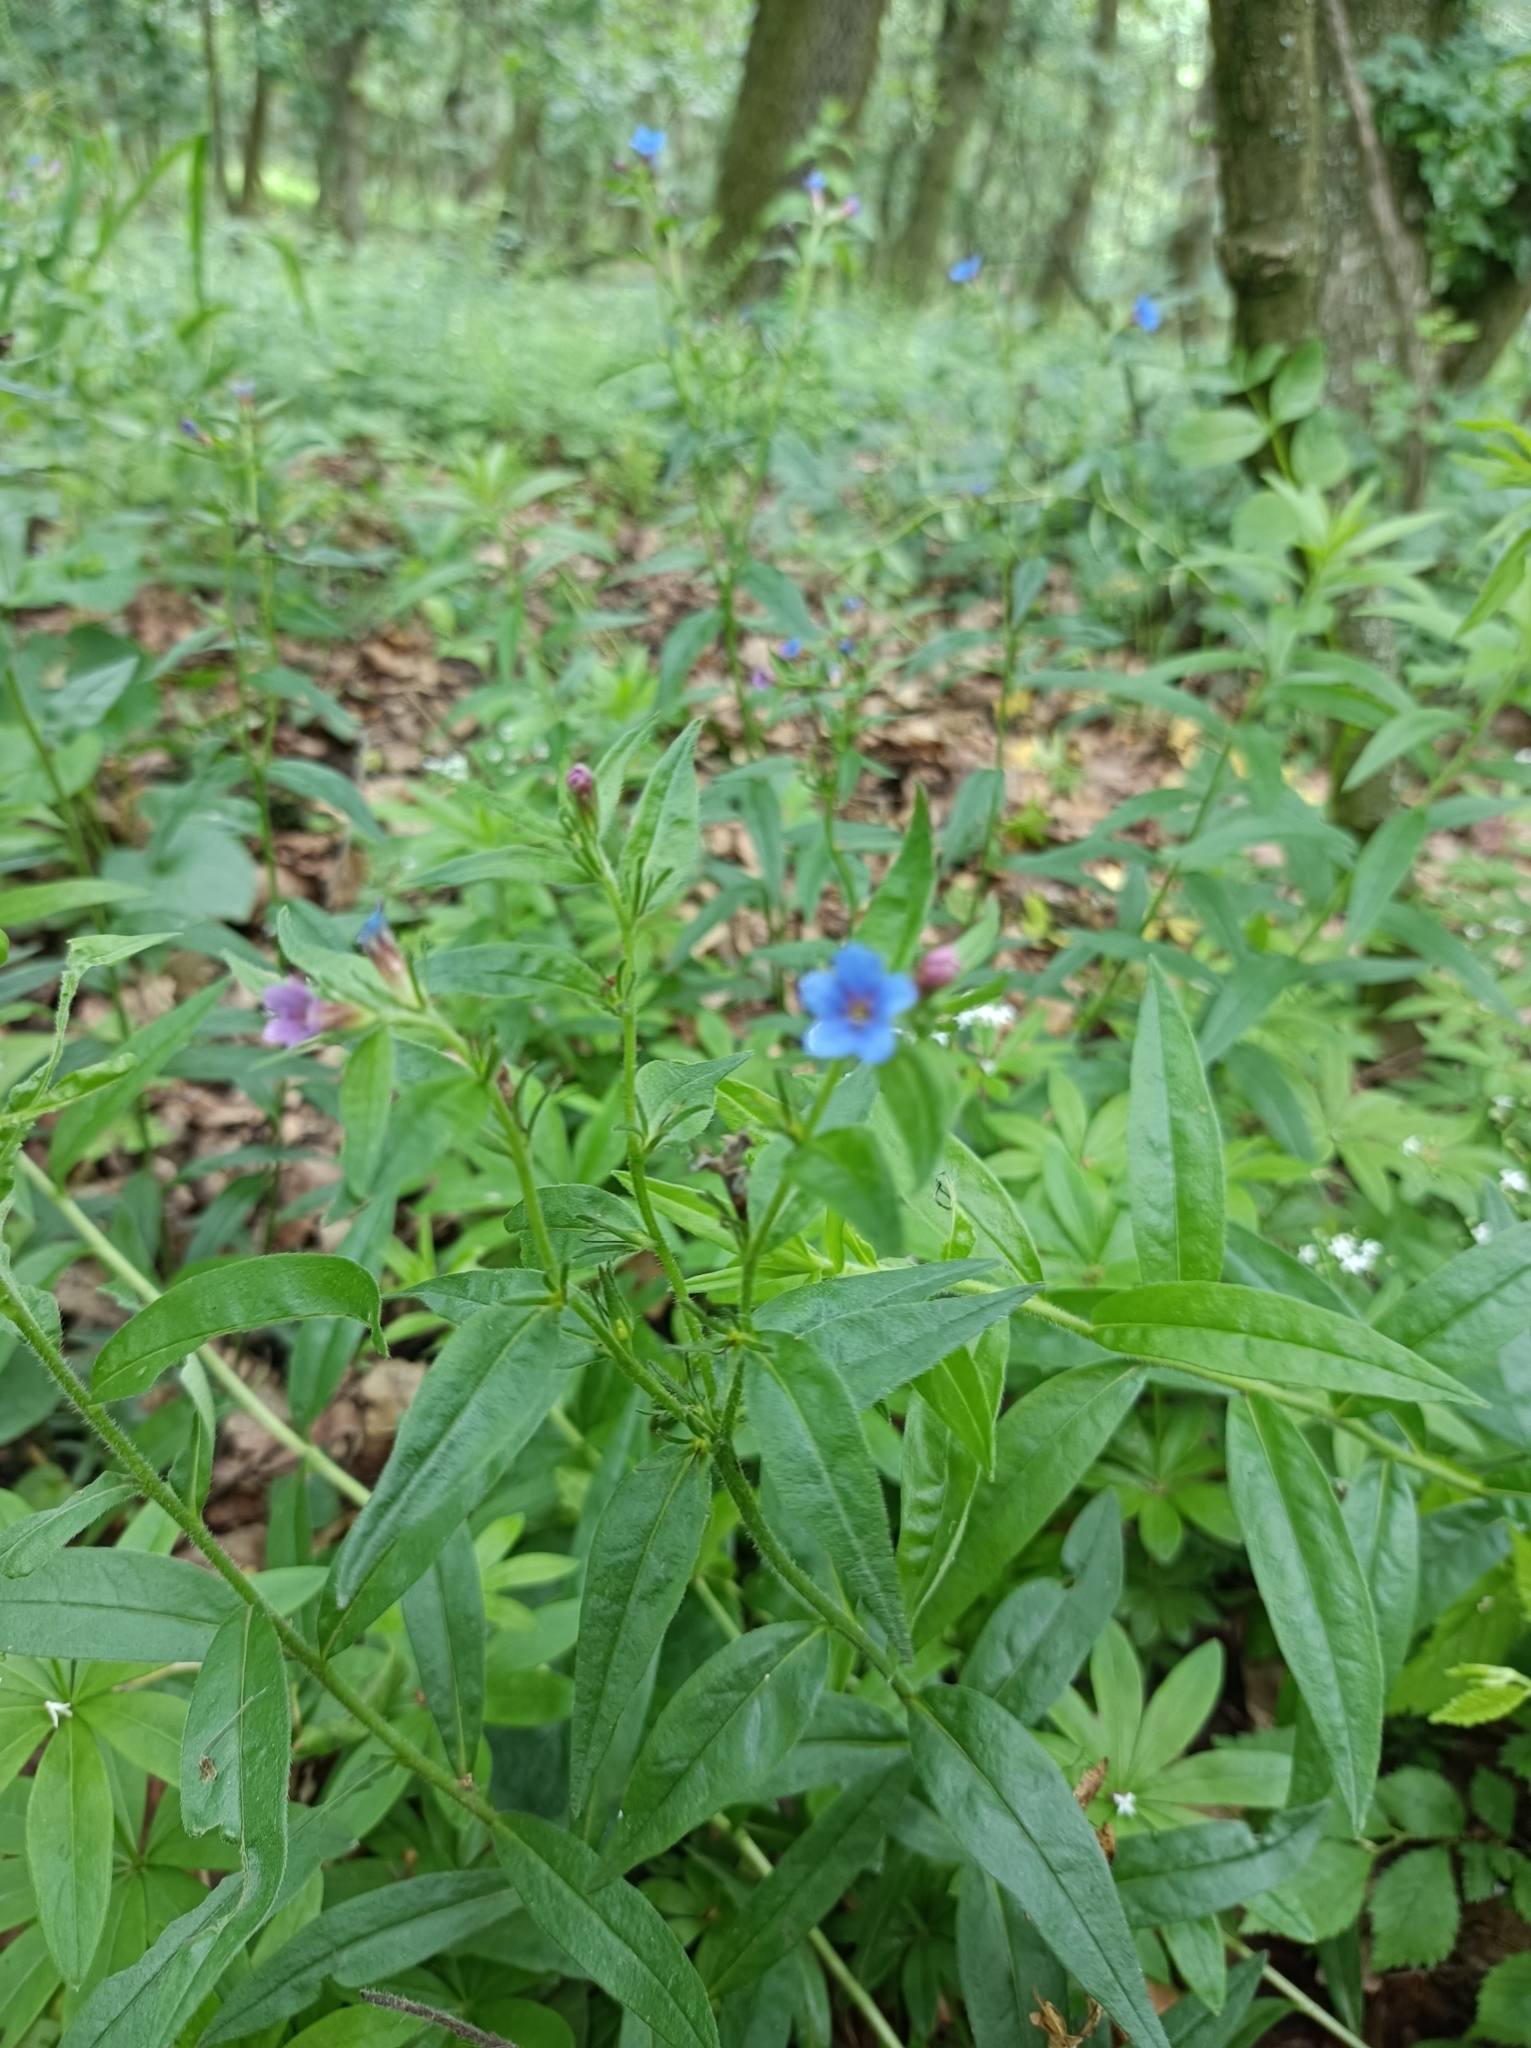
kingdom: Plantae
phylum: Tracheophyta
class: Magnoliopsida
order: Boraginales
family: Boraginaceae
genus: Aegonychon
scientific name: Aegonychon purpurocaeruleum
